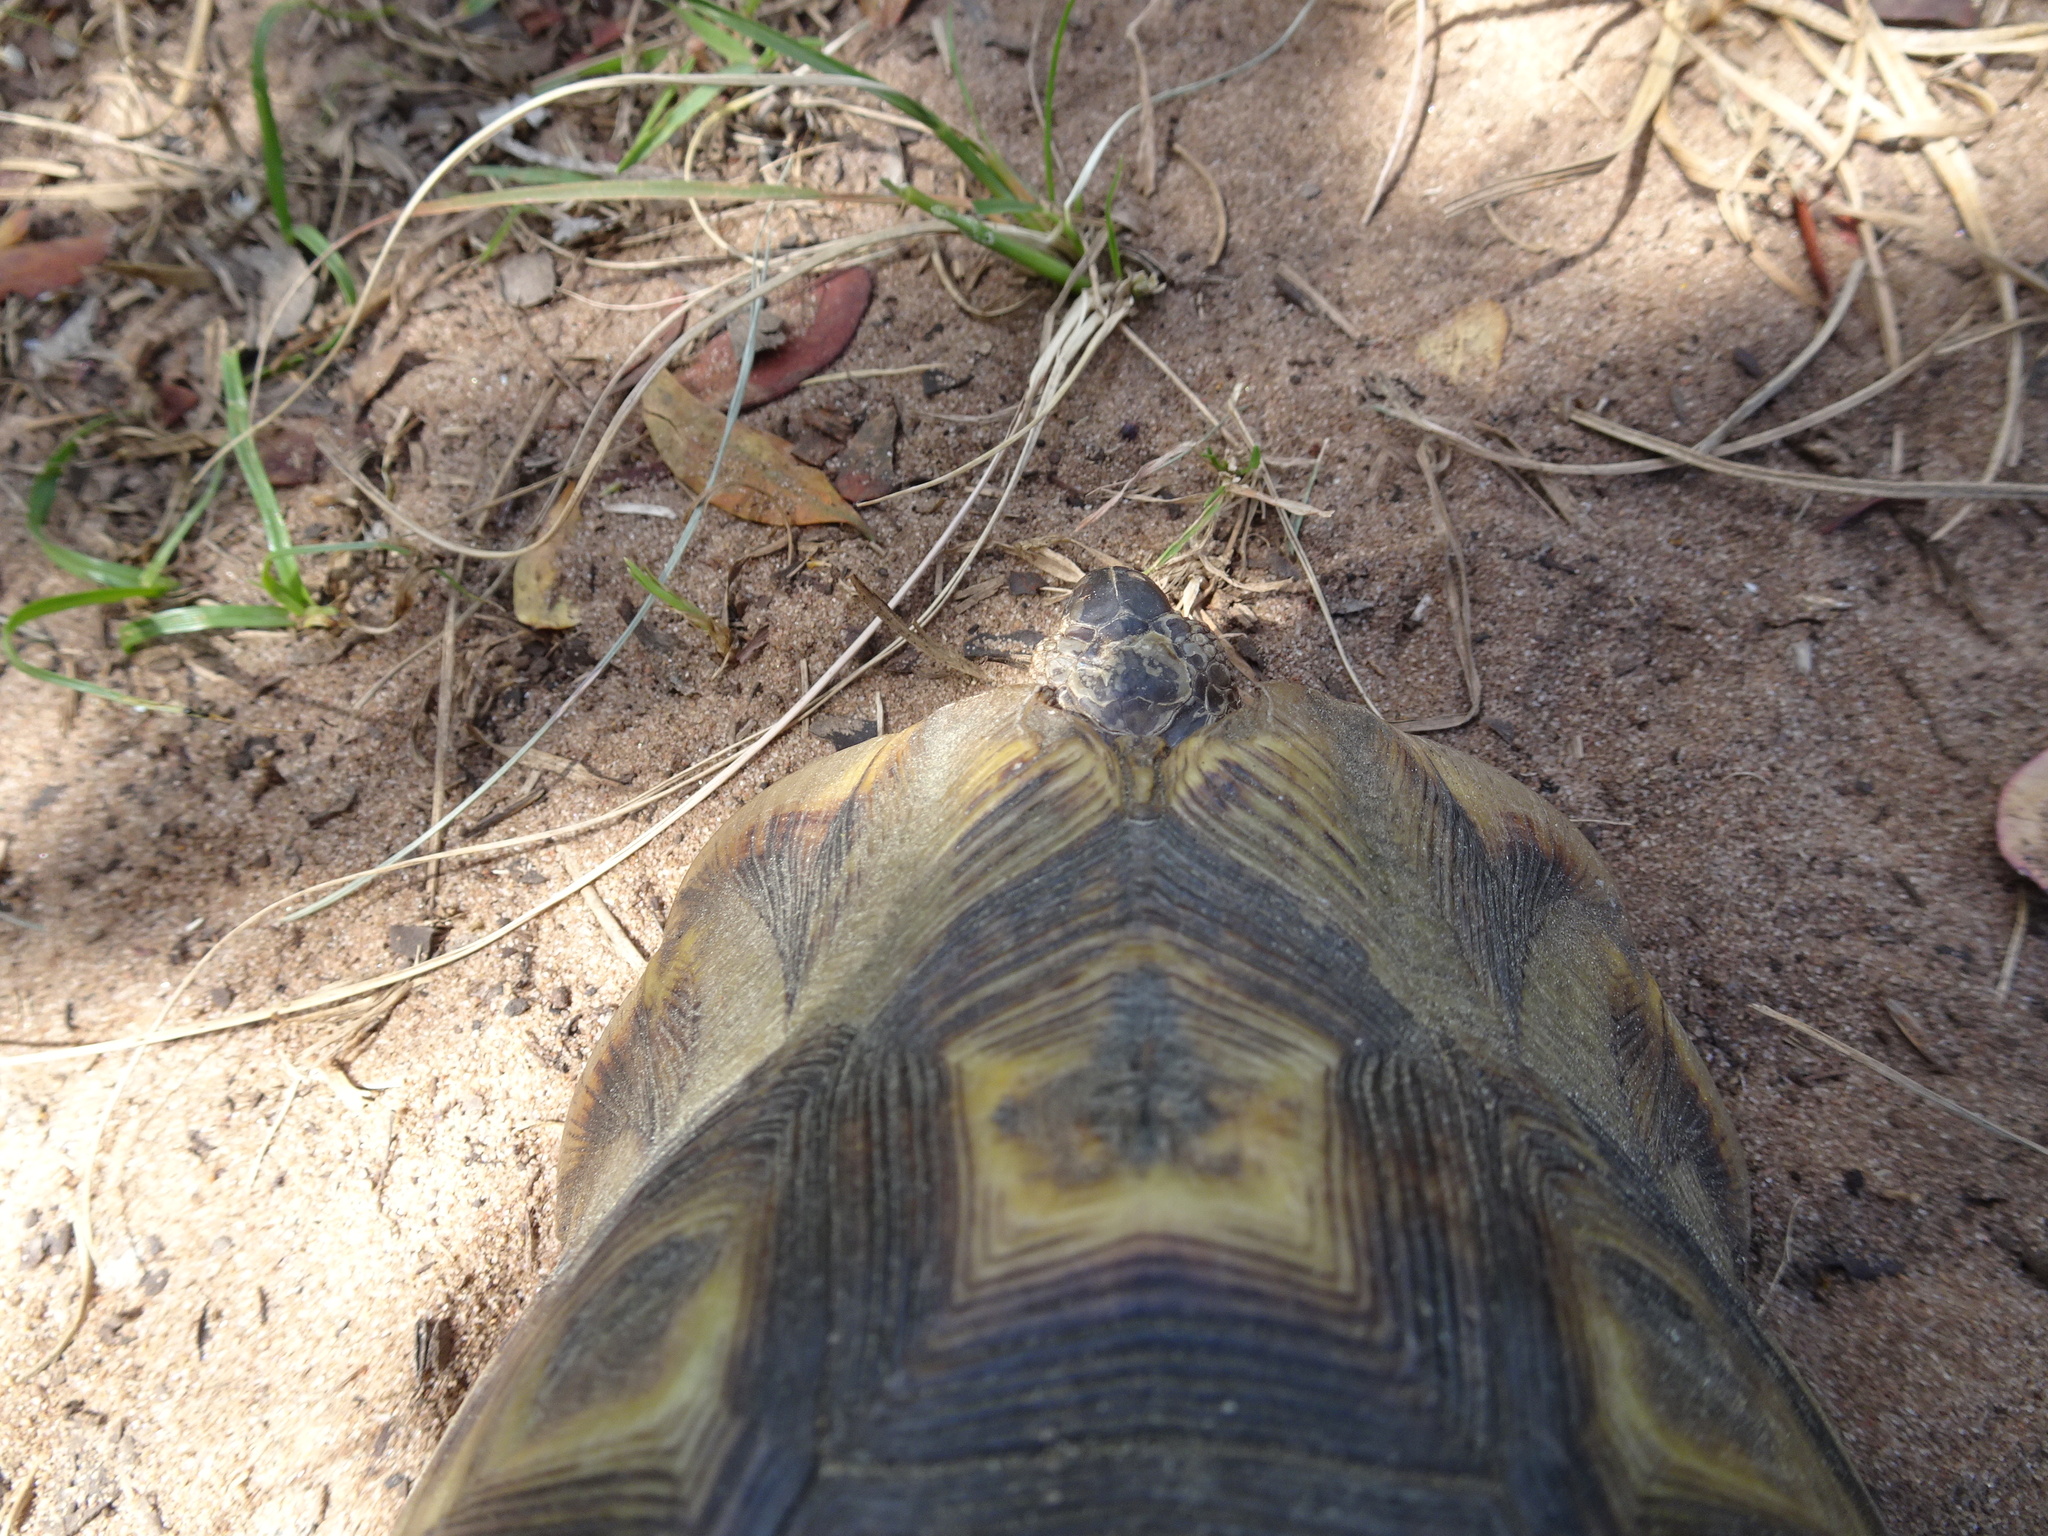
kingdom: Animalia
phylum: Chordata
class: Testudines
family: Testudinidae
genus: Chersina
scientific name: Chersina angulata
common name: South african bowsprit tortoise
